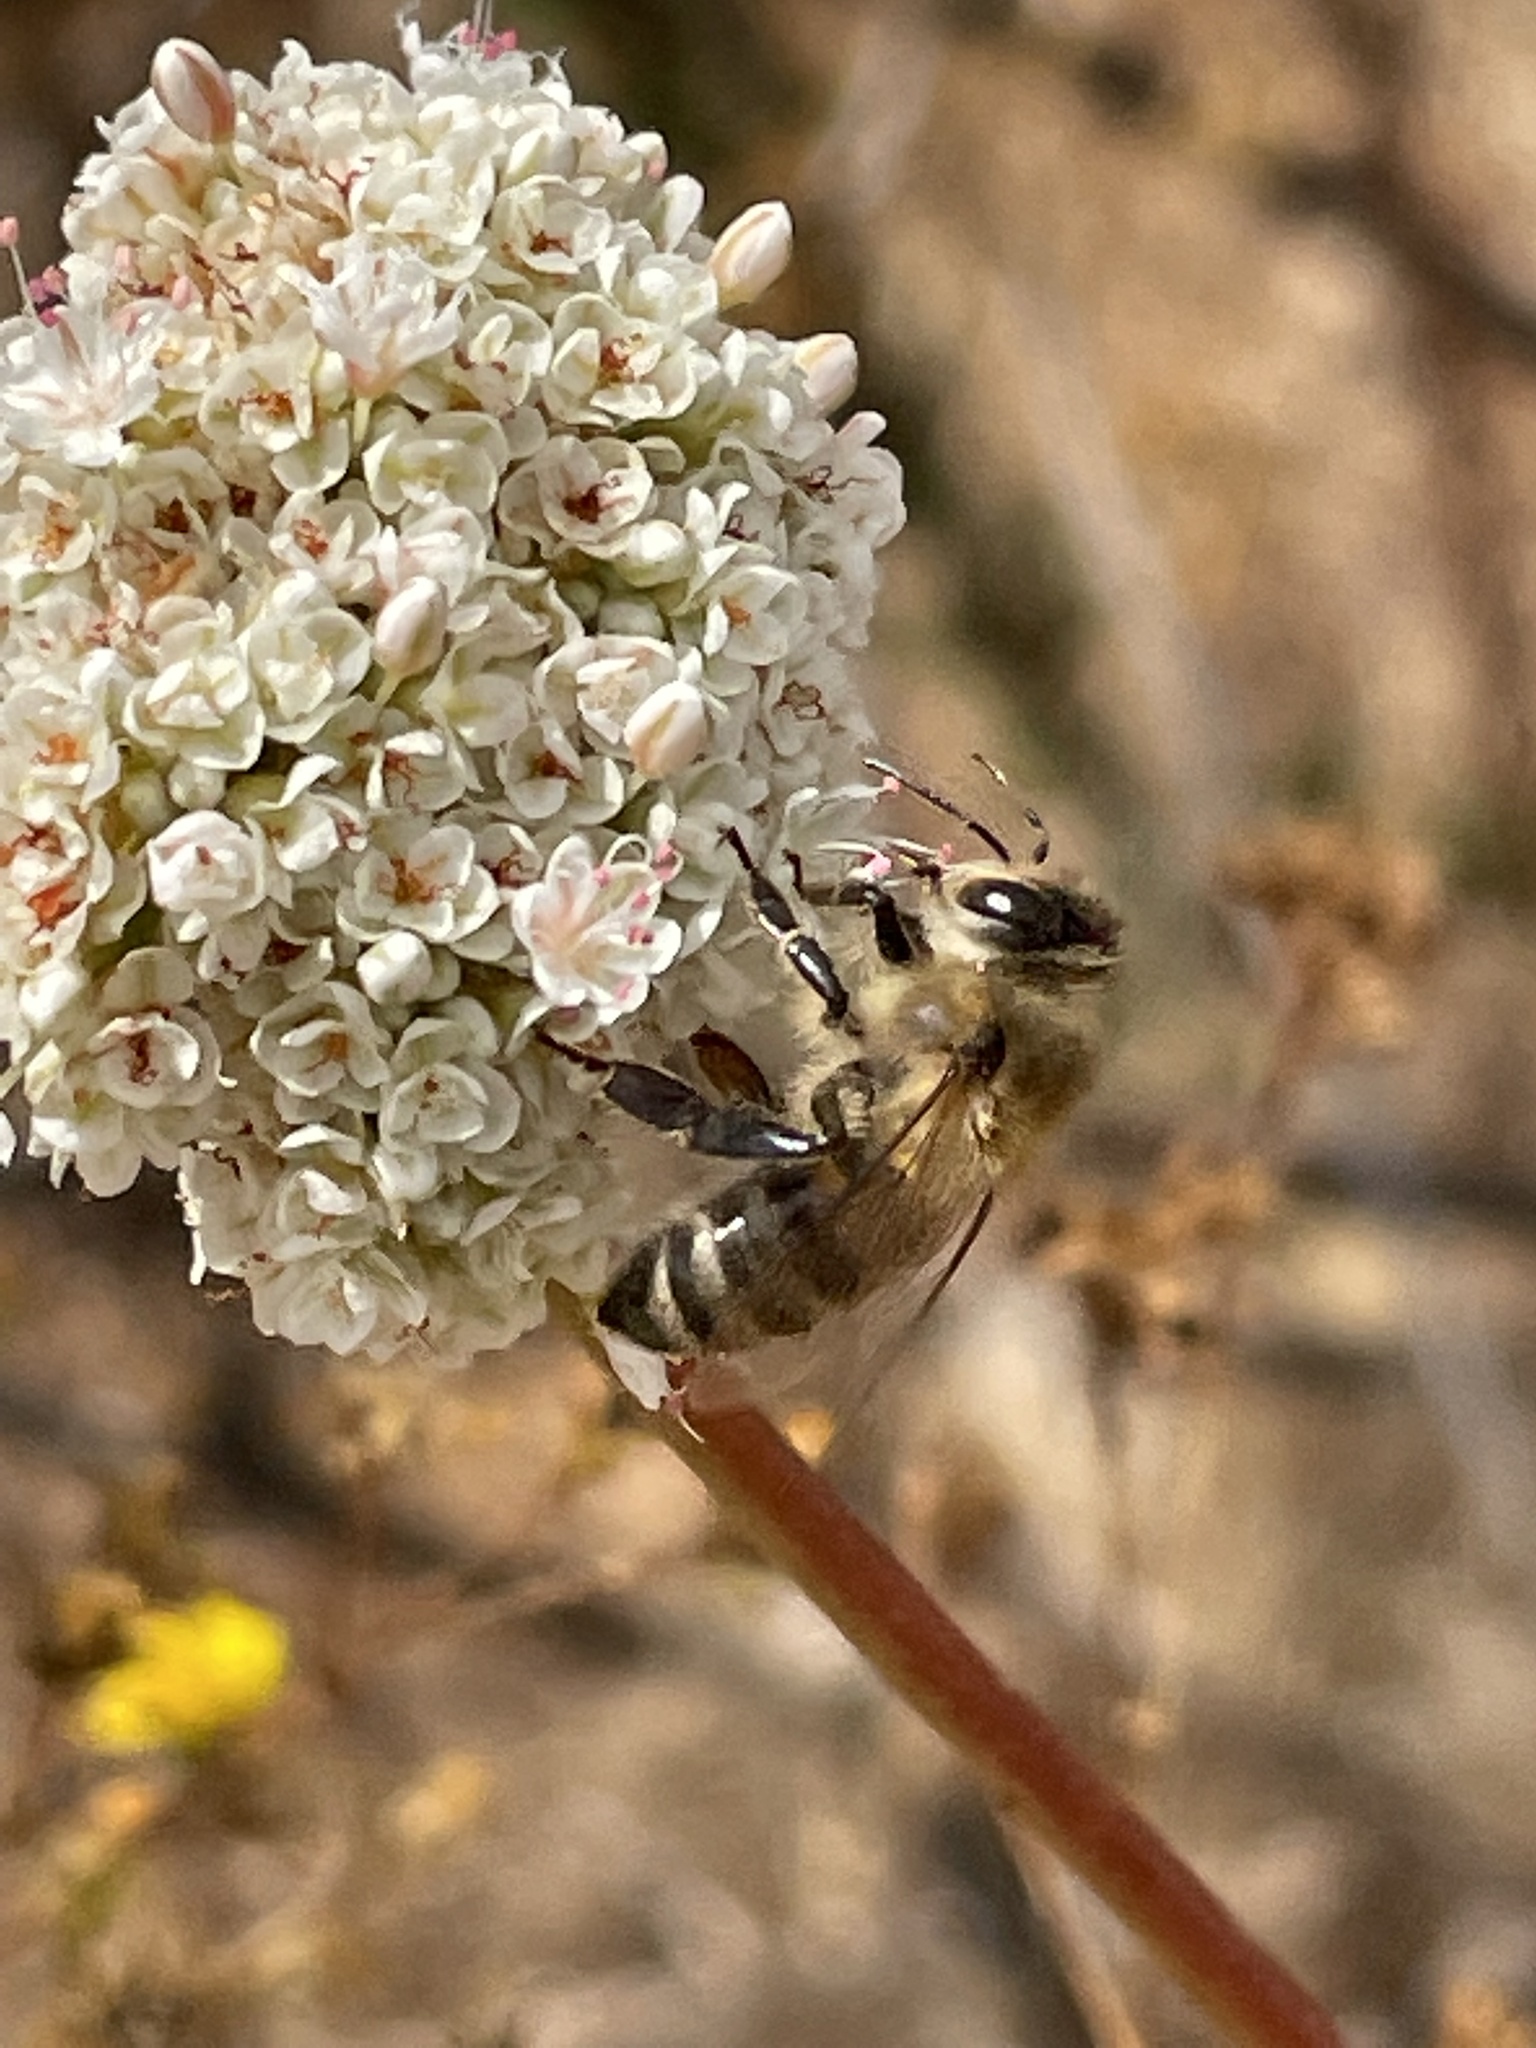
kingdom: Animalia
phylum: Arthropoda
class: Insecta
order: Hymenoptera
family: Apidae
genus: Apis
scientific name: Apis mellifera
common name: Honey bee
